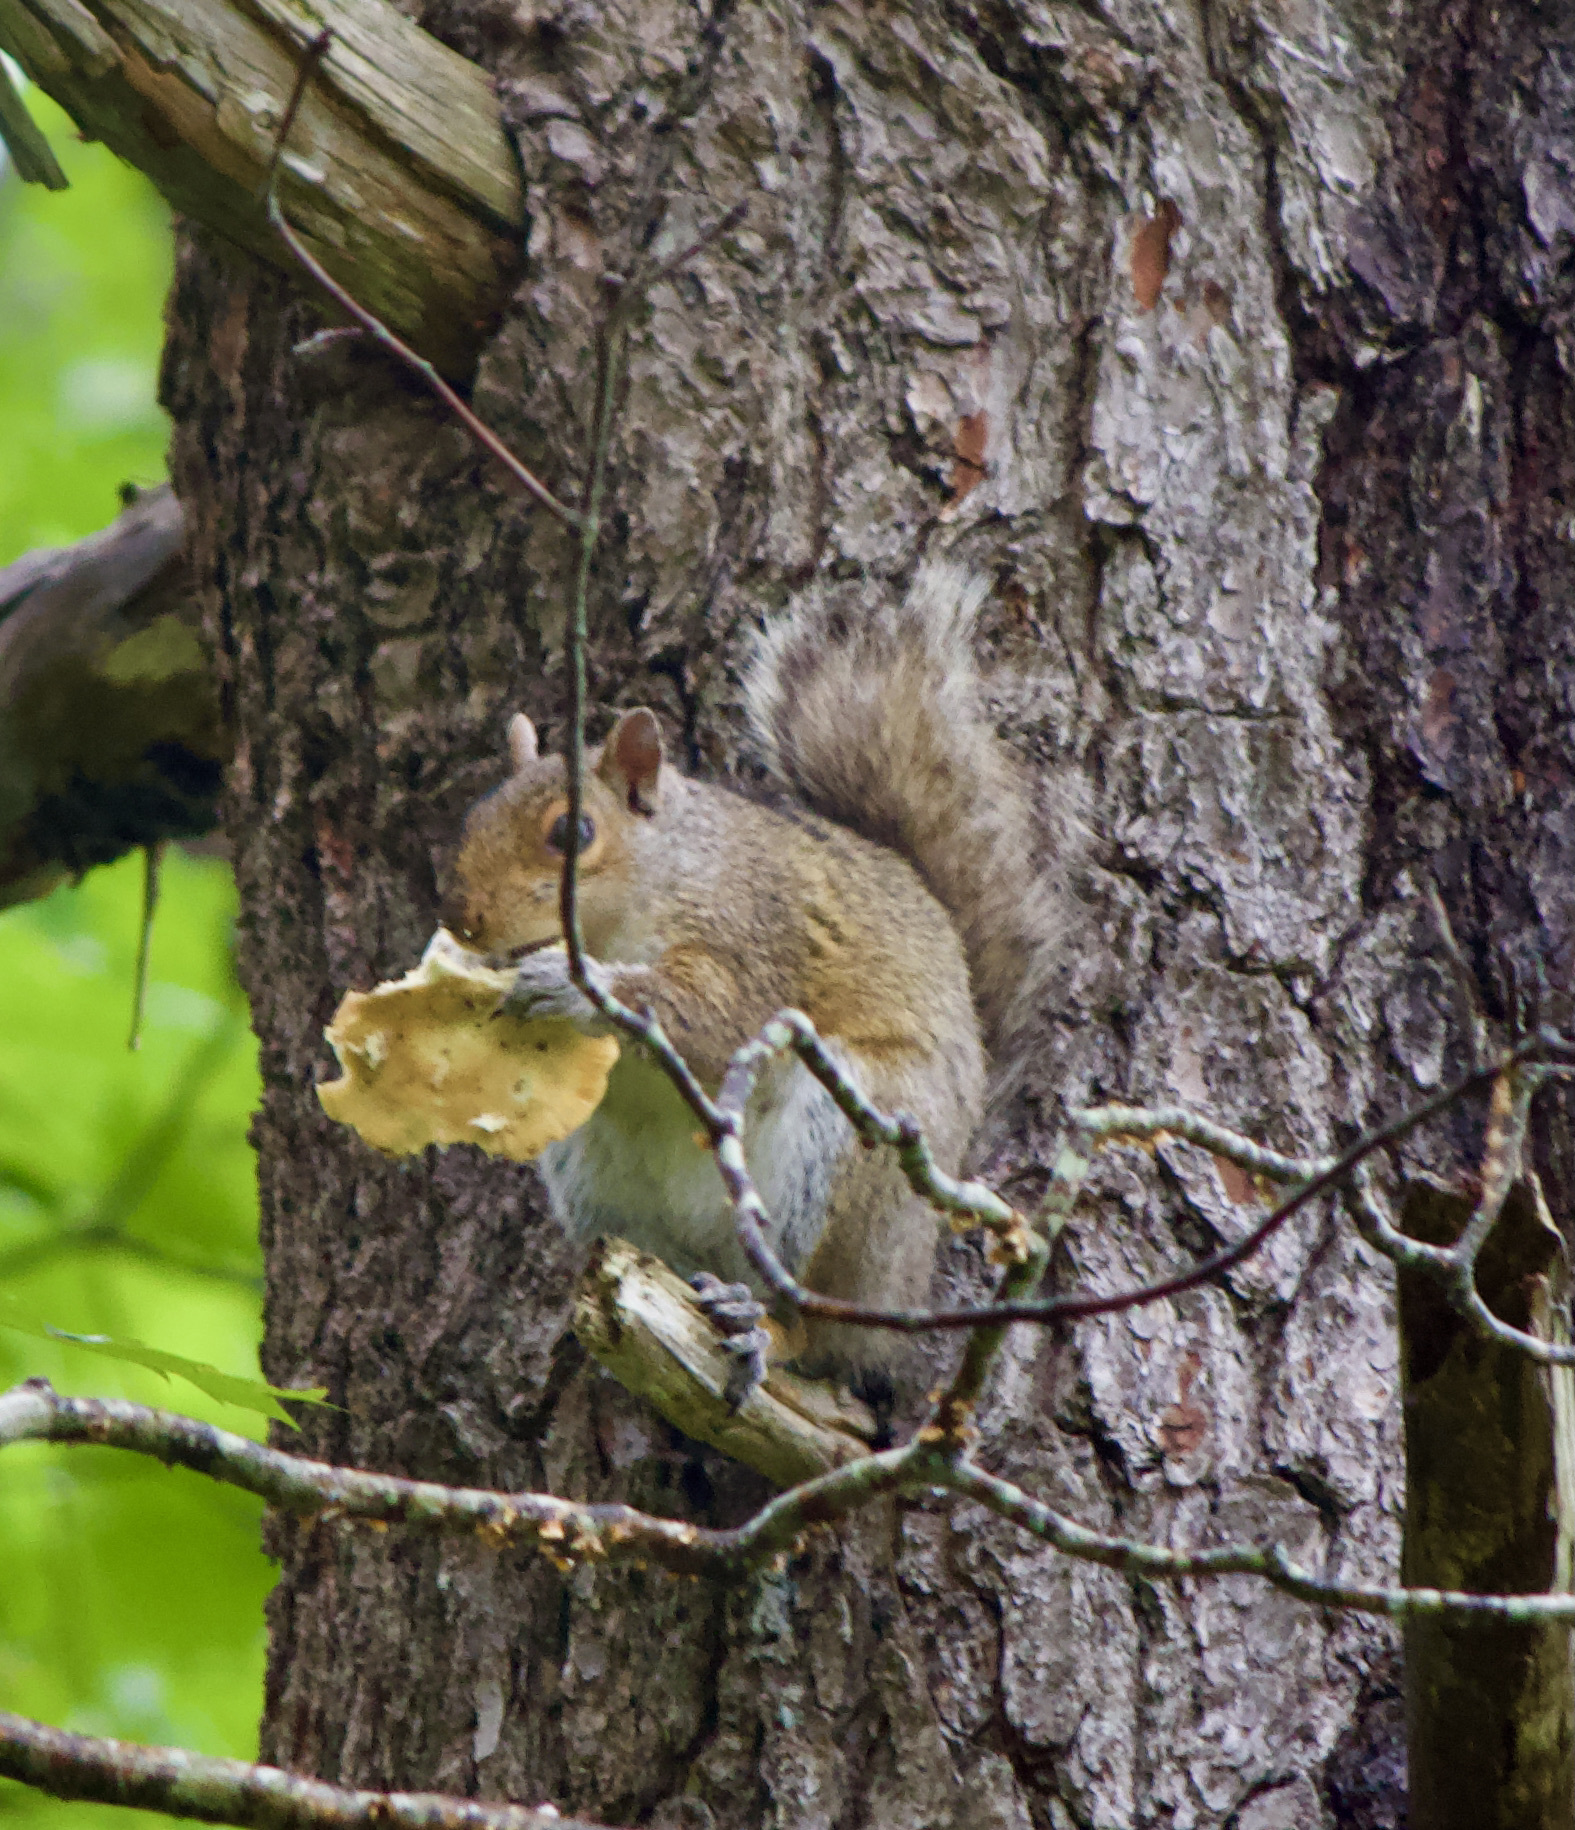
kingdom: Animalia
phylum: Chordata
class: Mammalia
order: Rodentia
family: Sciuridae
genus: Sciurus
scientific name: Sciurus carolinensis
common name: Eastern gray squirrel
